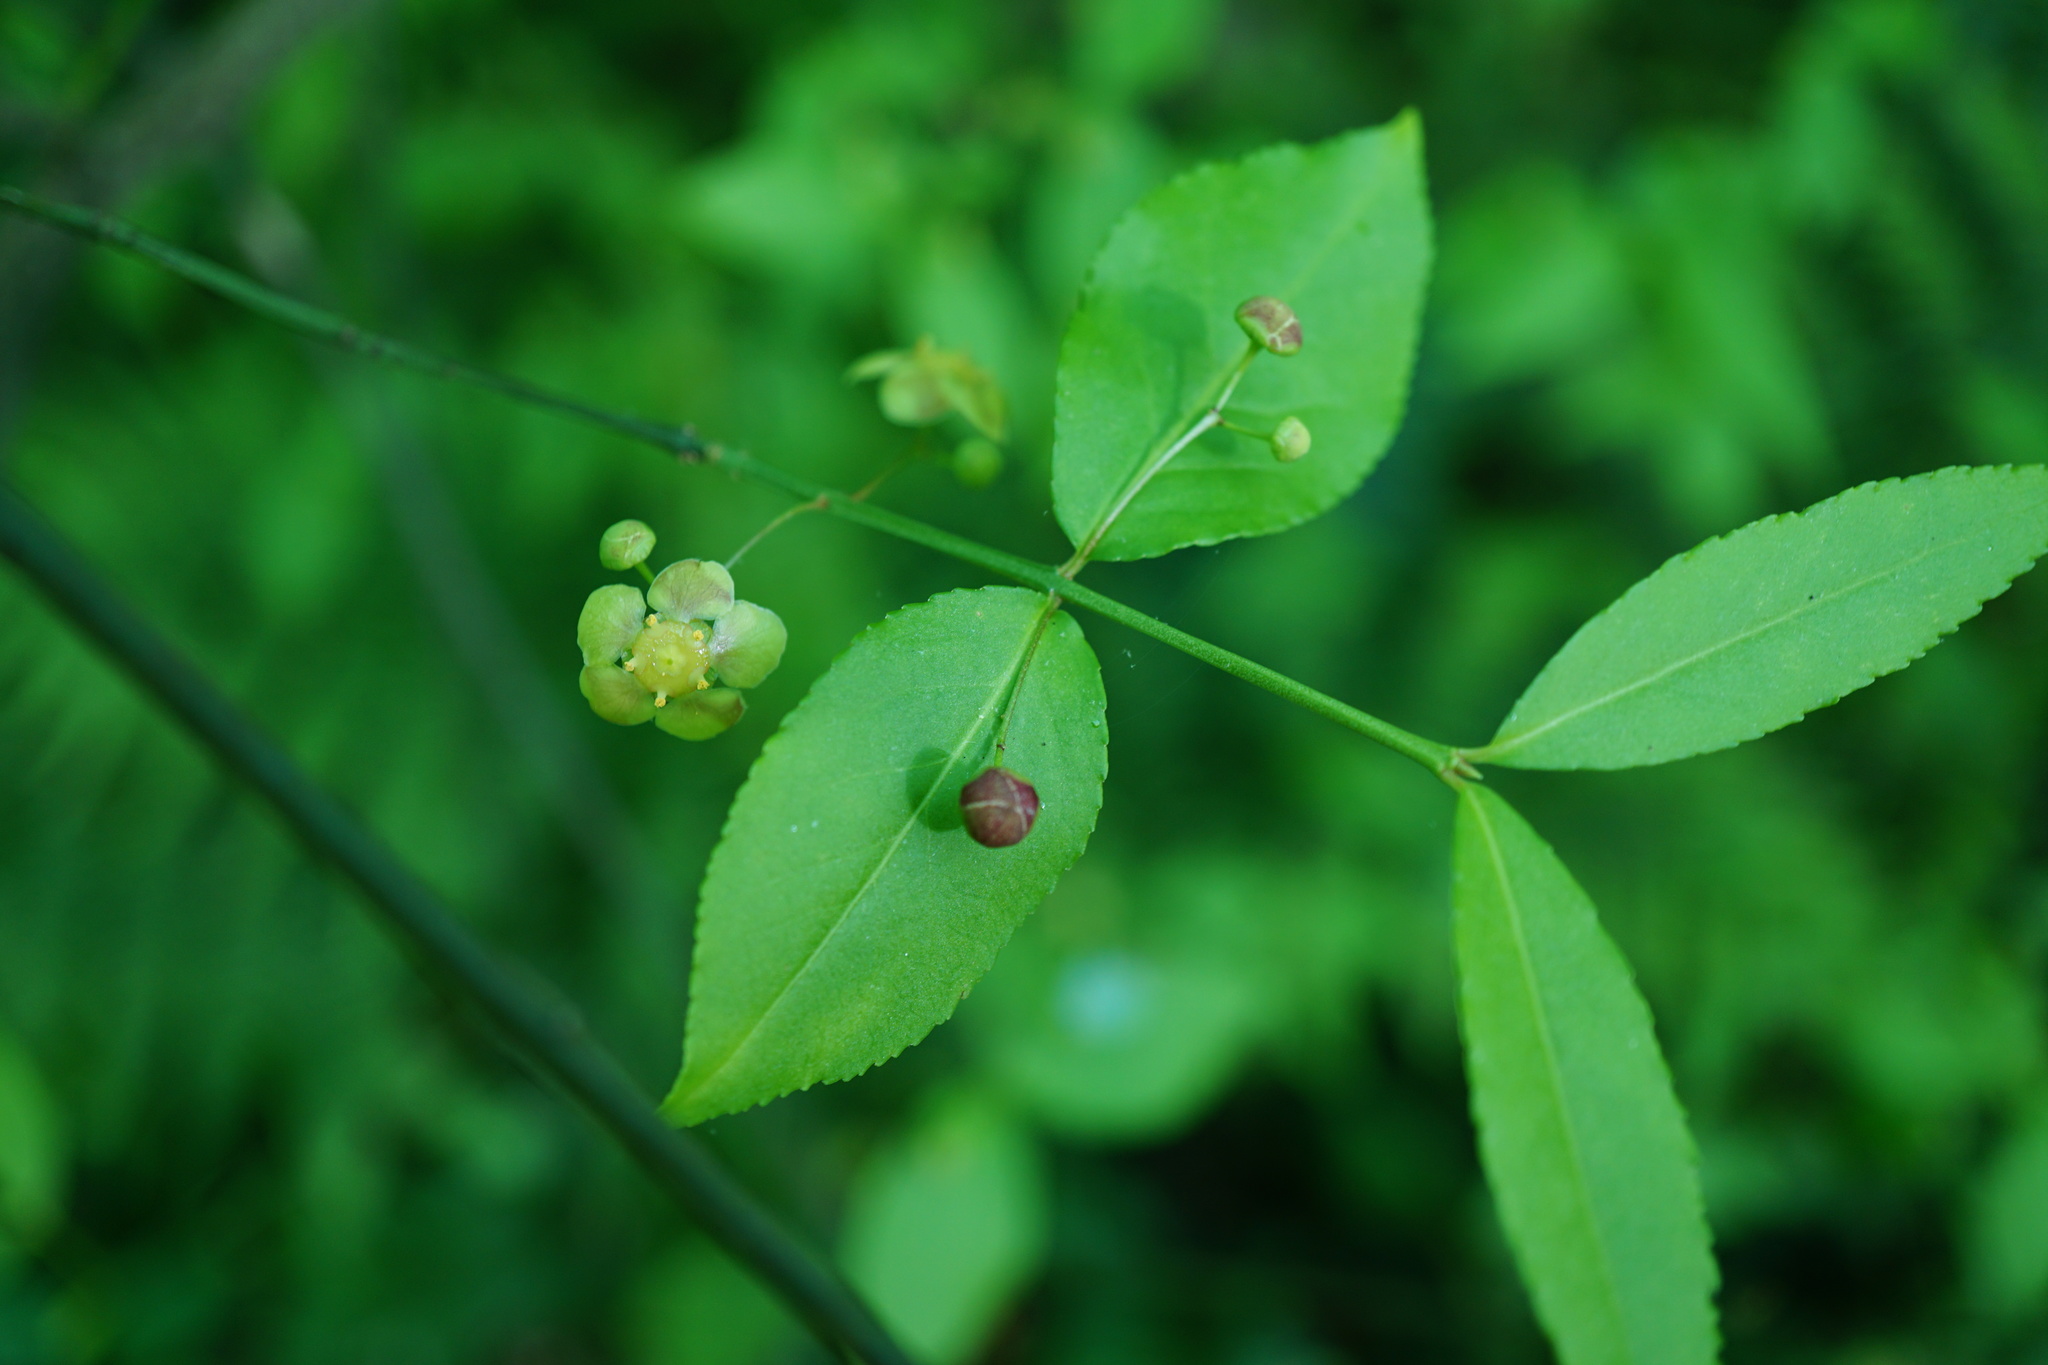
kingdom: Plantae
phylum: Tracheophyta
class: Magnoliopsida
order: Celastrales
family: Celastraceae
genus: Euonymus
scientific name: Euonymus americanus
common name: Bursting-heart
